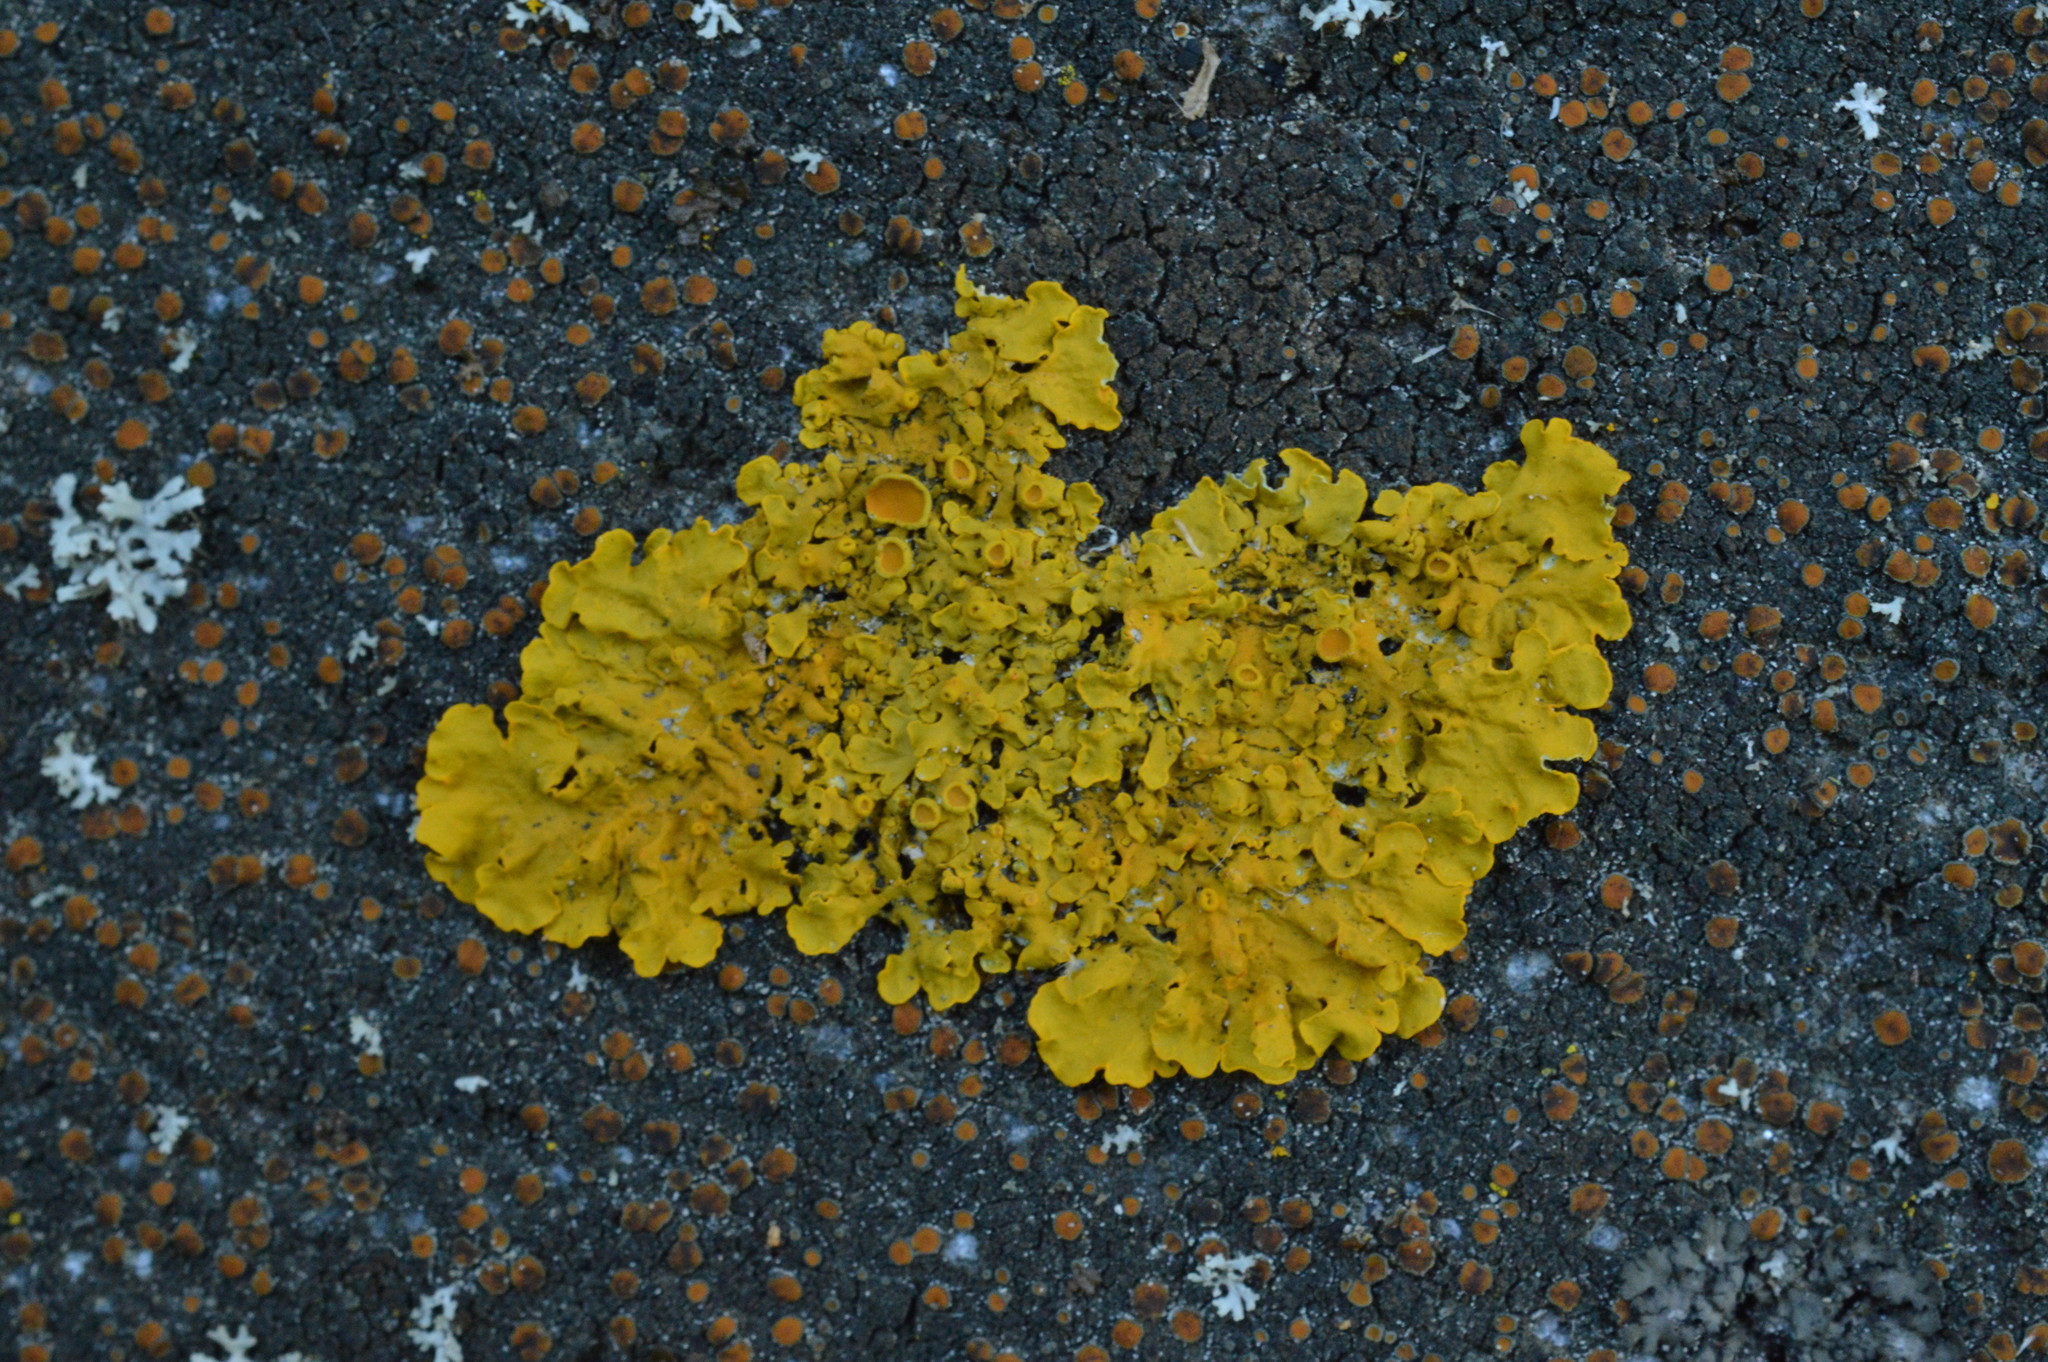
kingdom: Fungi
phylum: Ascomycota
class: Lecanoromycetes
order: Teloschistales
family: Teloschistaceae
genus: Xanthoria
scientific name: Xanthoria parietina
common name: Common orange lichen
